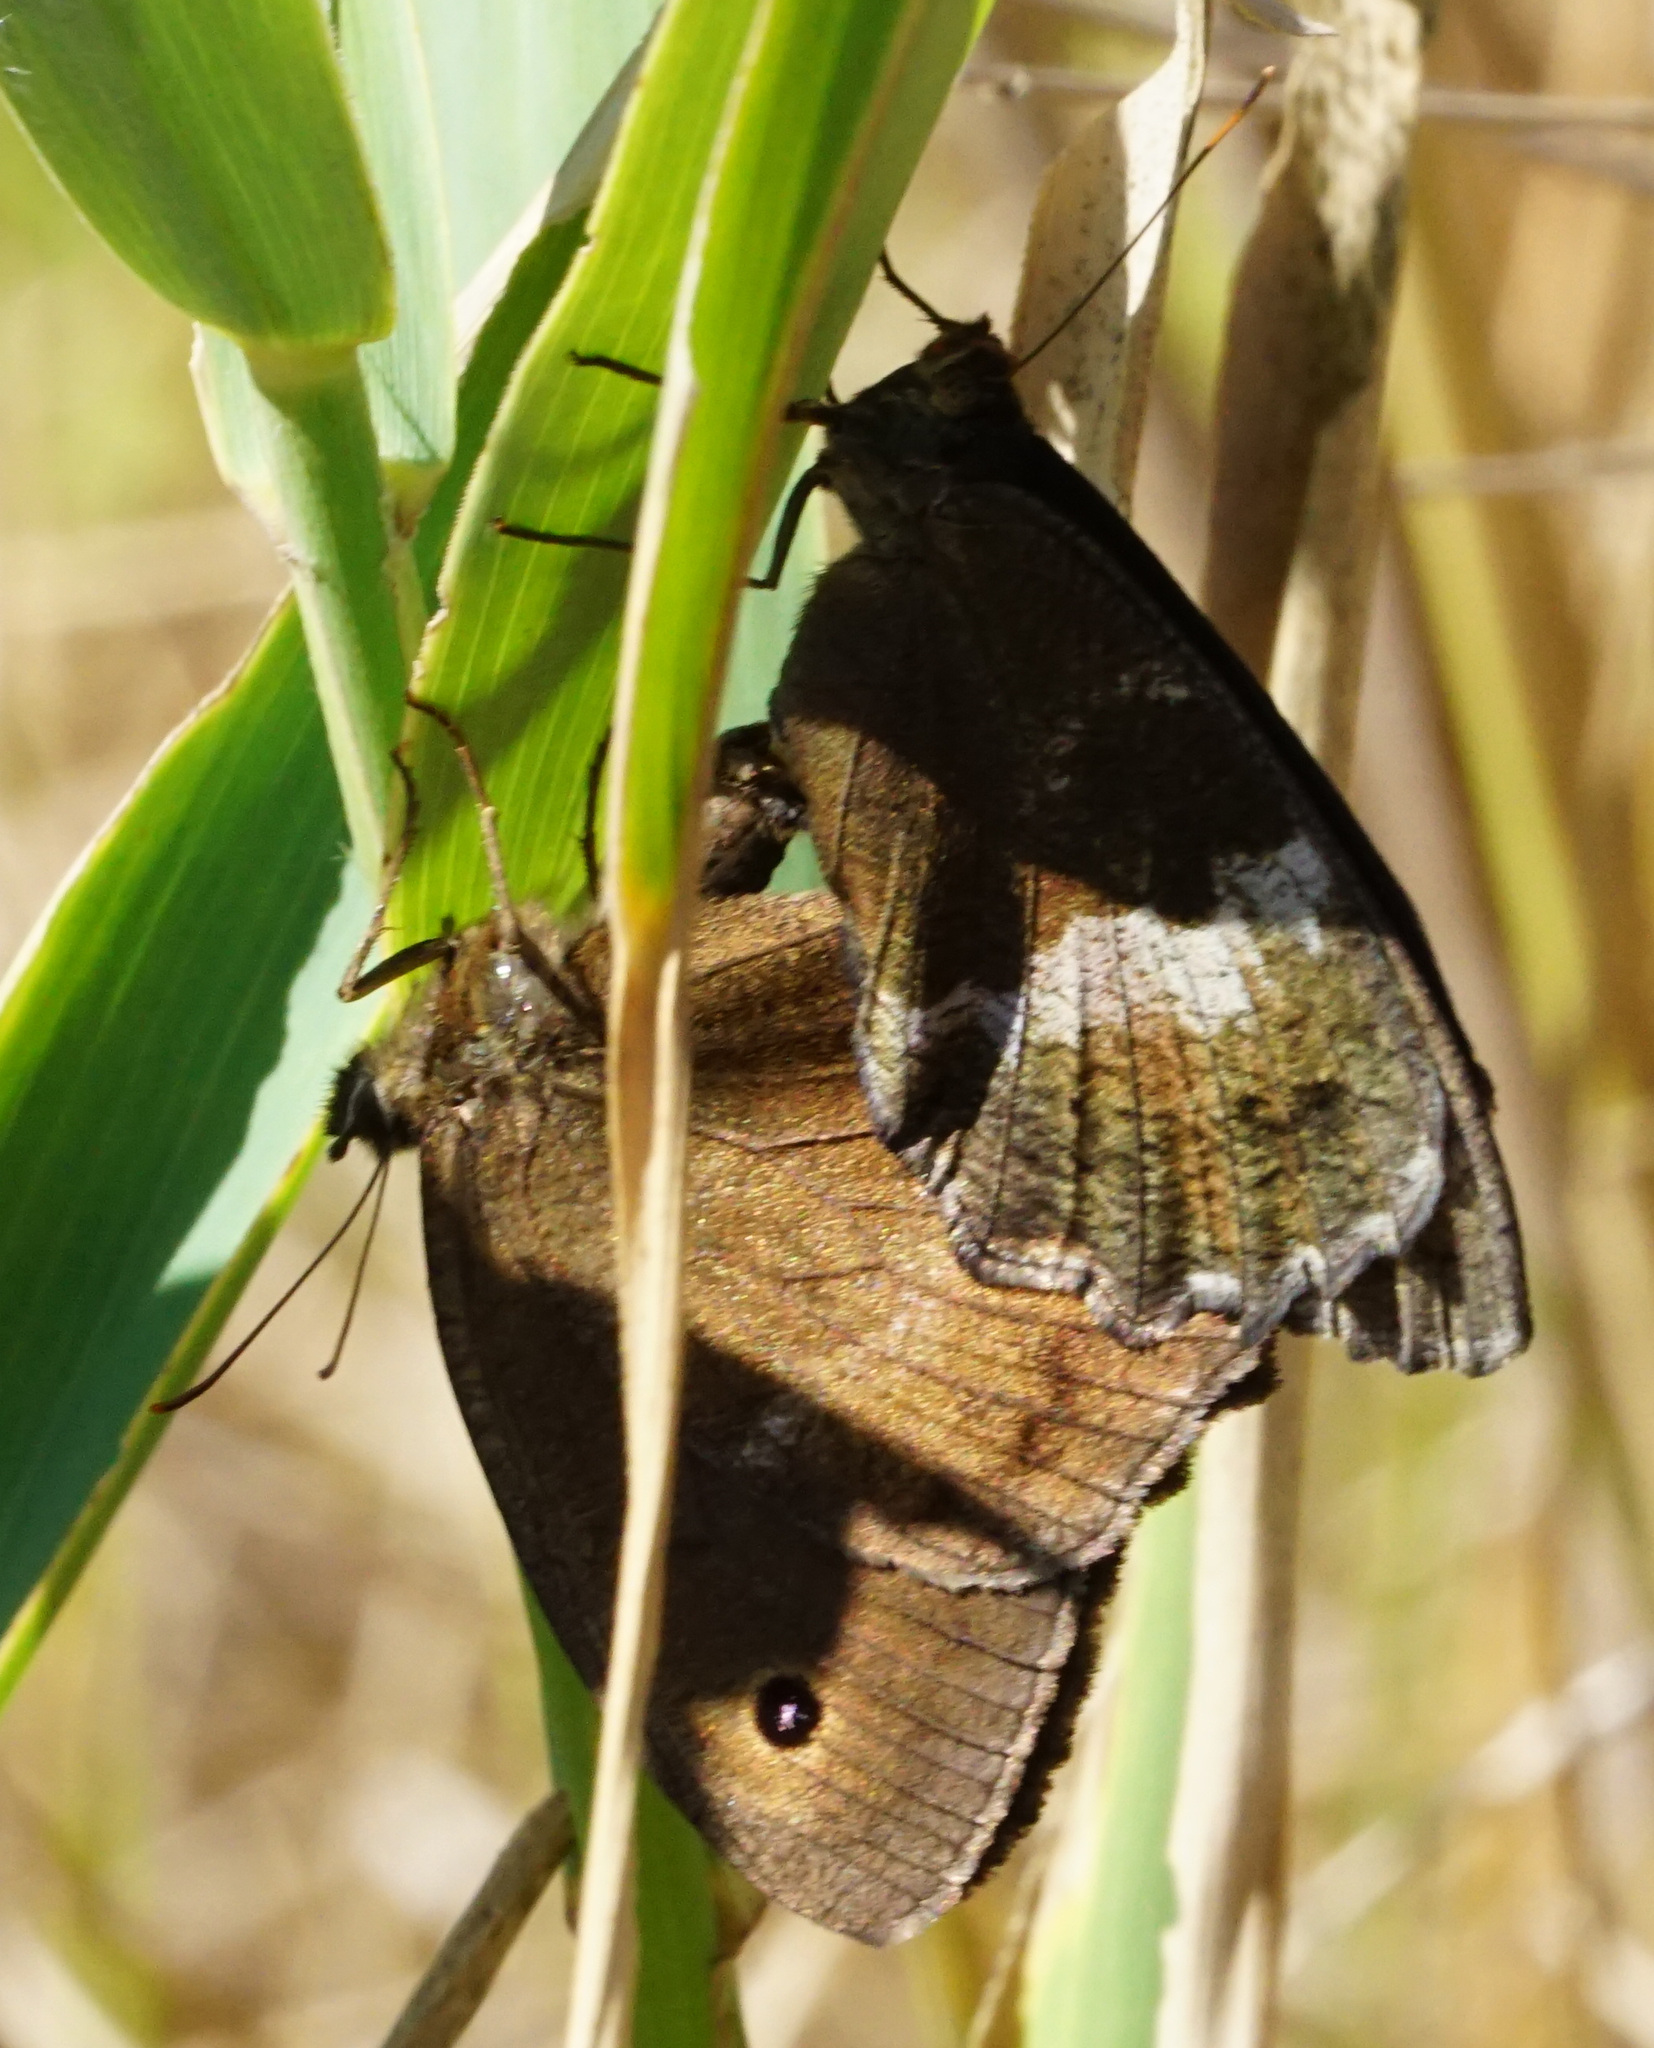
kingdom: Animalia
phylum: Arthropoda
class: Insecta
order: Lepidoptera
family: Nymphalidae
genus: Minois
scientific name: Minois dryas
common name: Dryad
